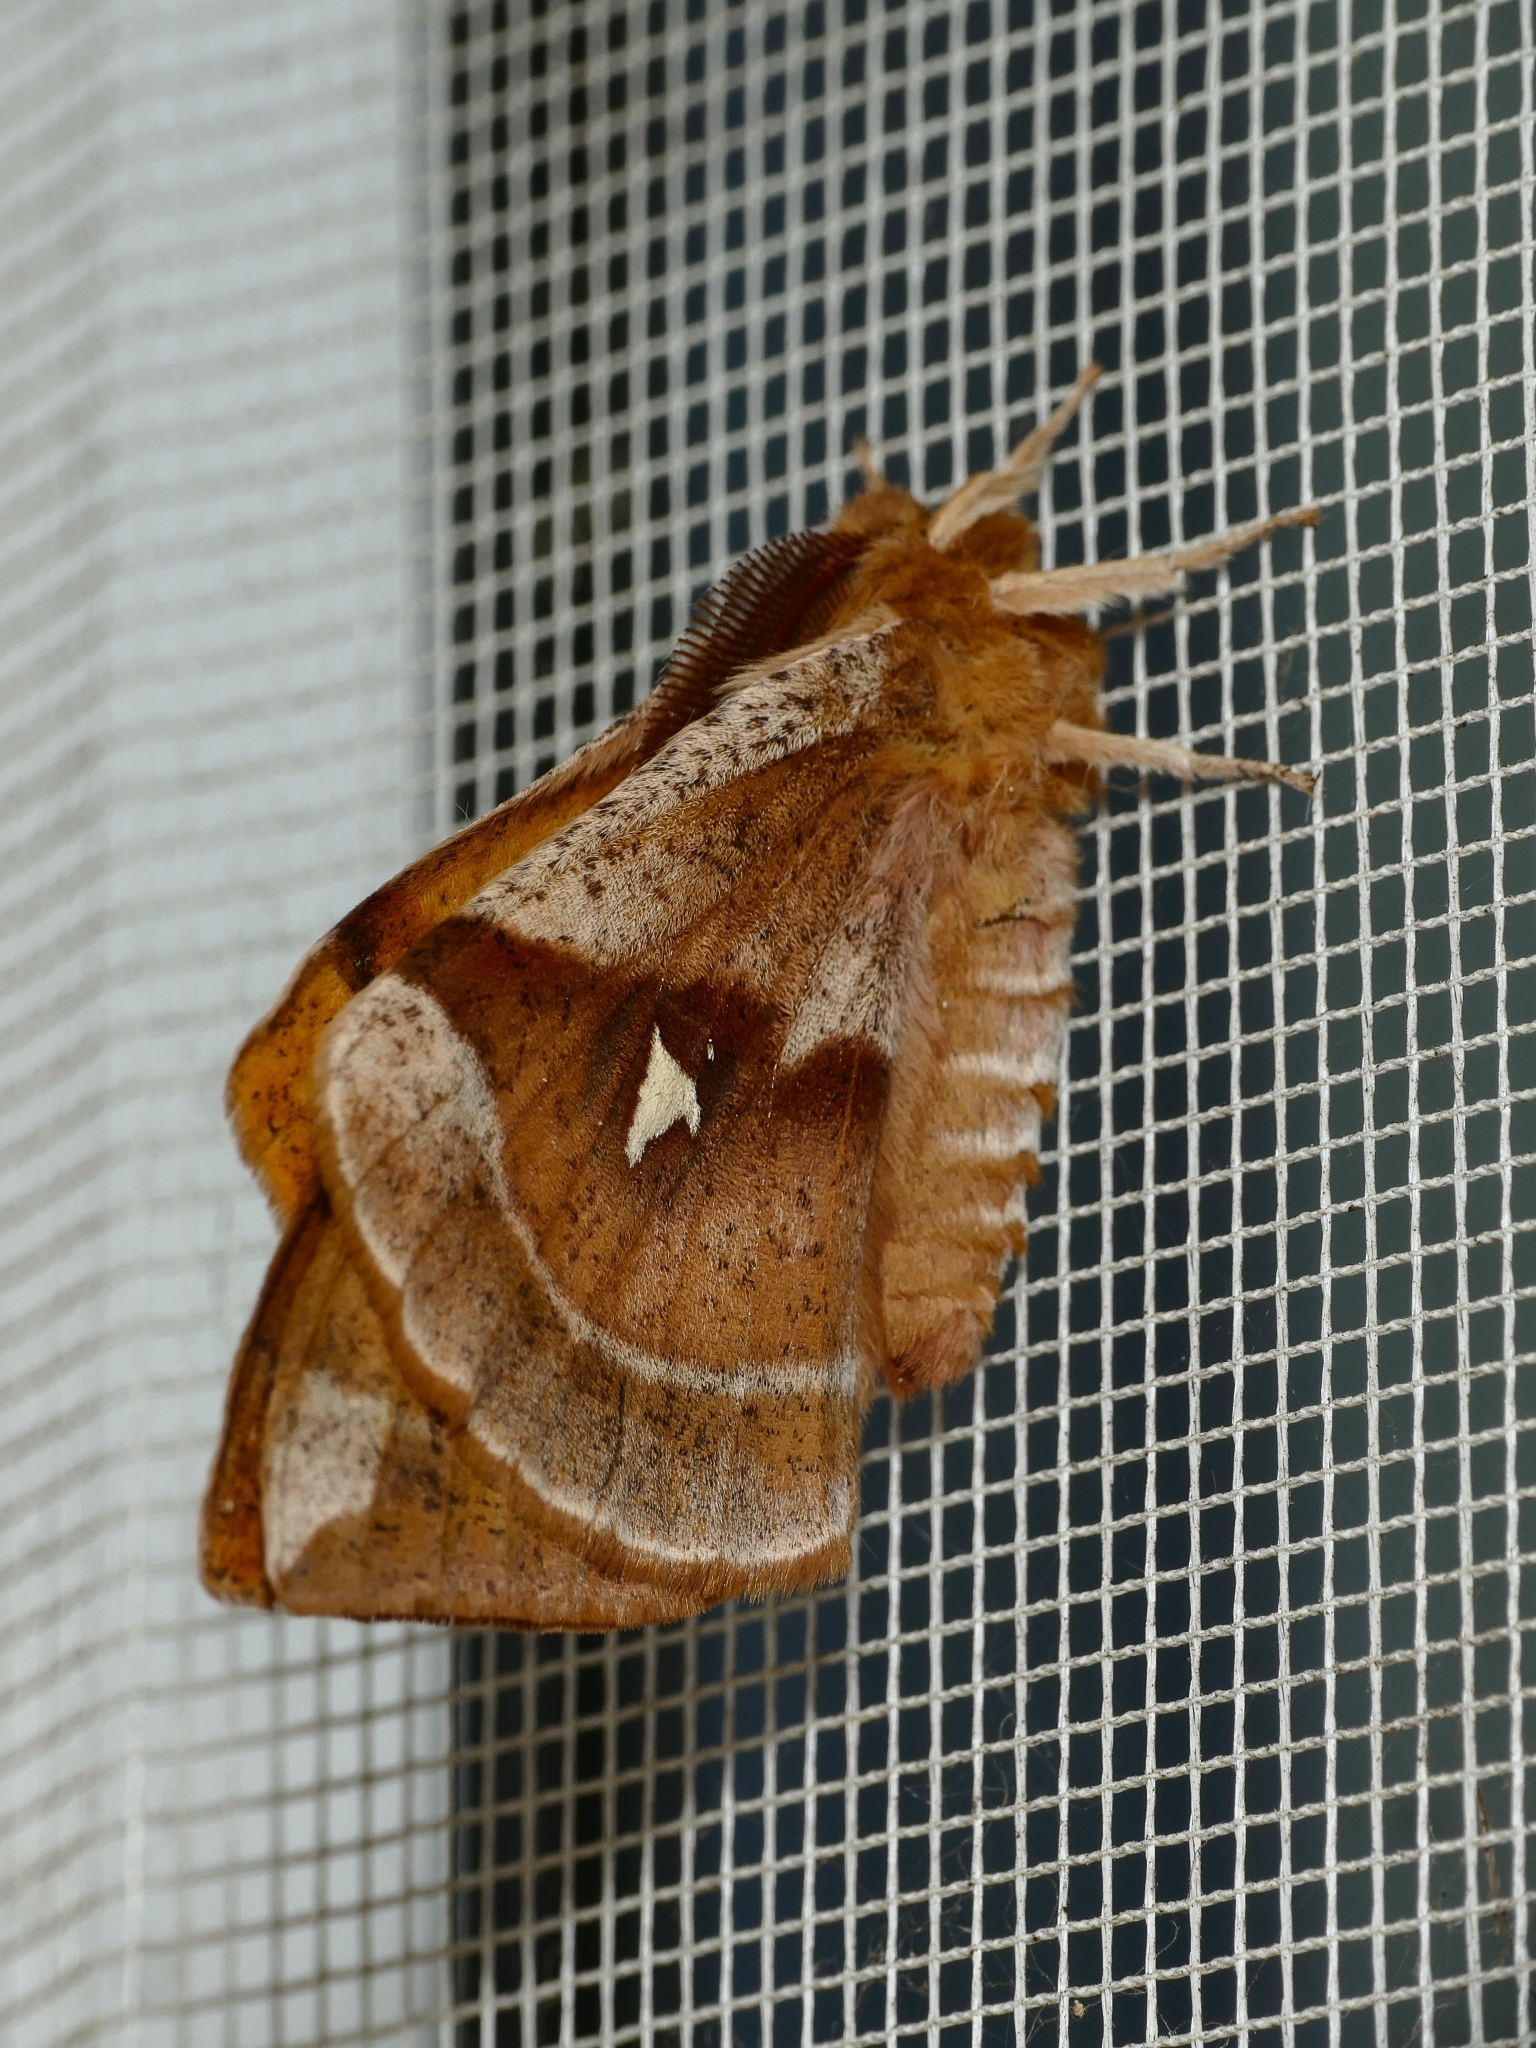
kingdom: Animalia
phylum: Arthropoda
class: Insecta
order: Lepidoptera
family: Saturniidae
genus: Aglia
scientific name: Aglia tau
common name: Tau emperor
